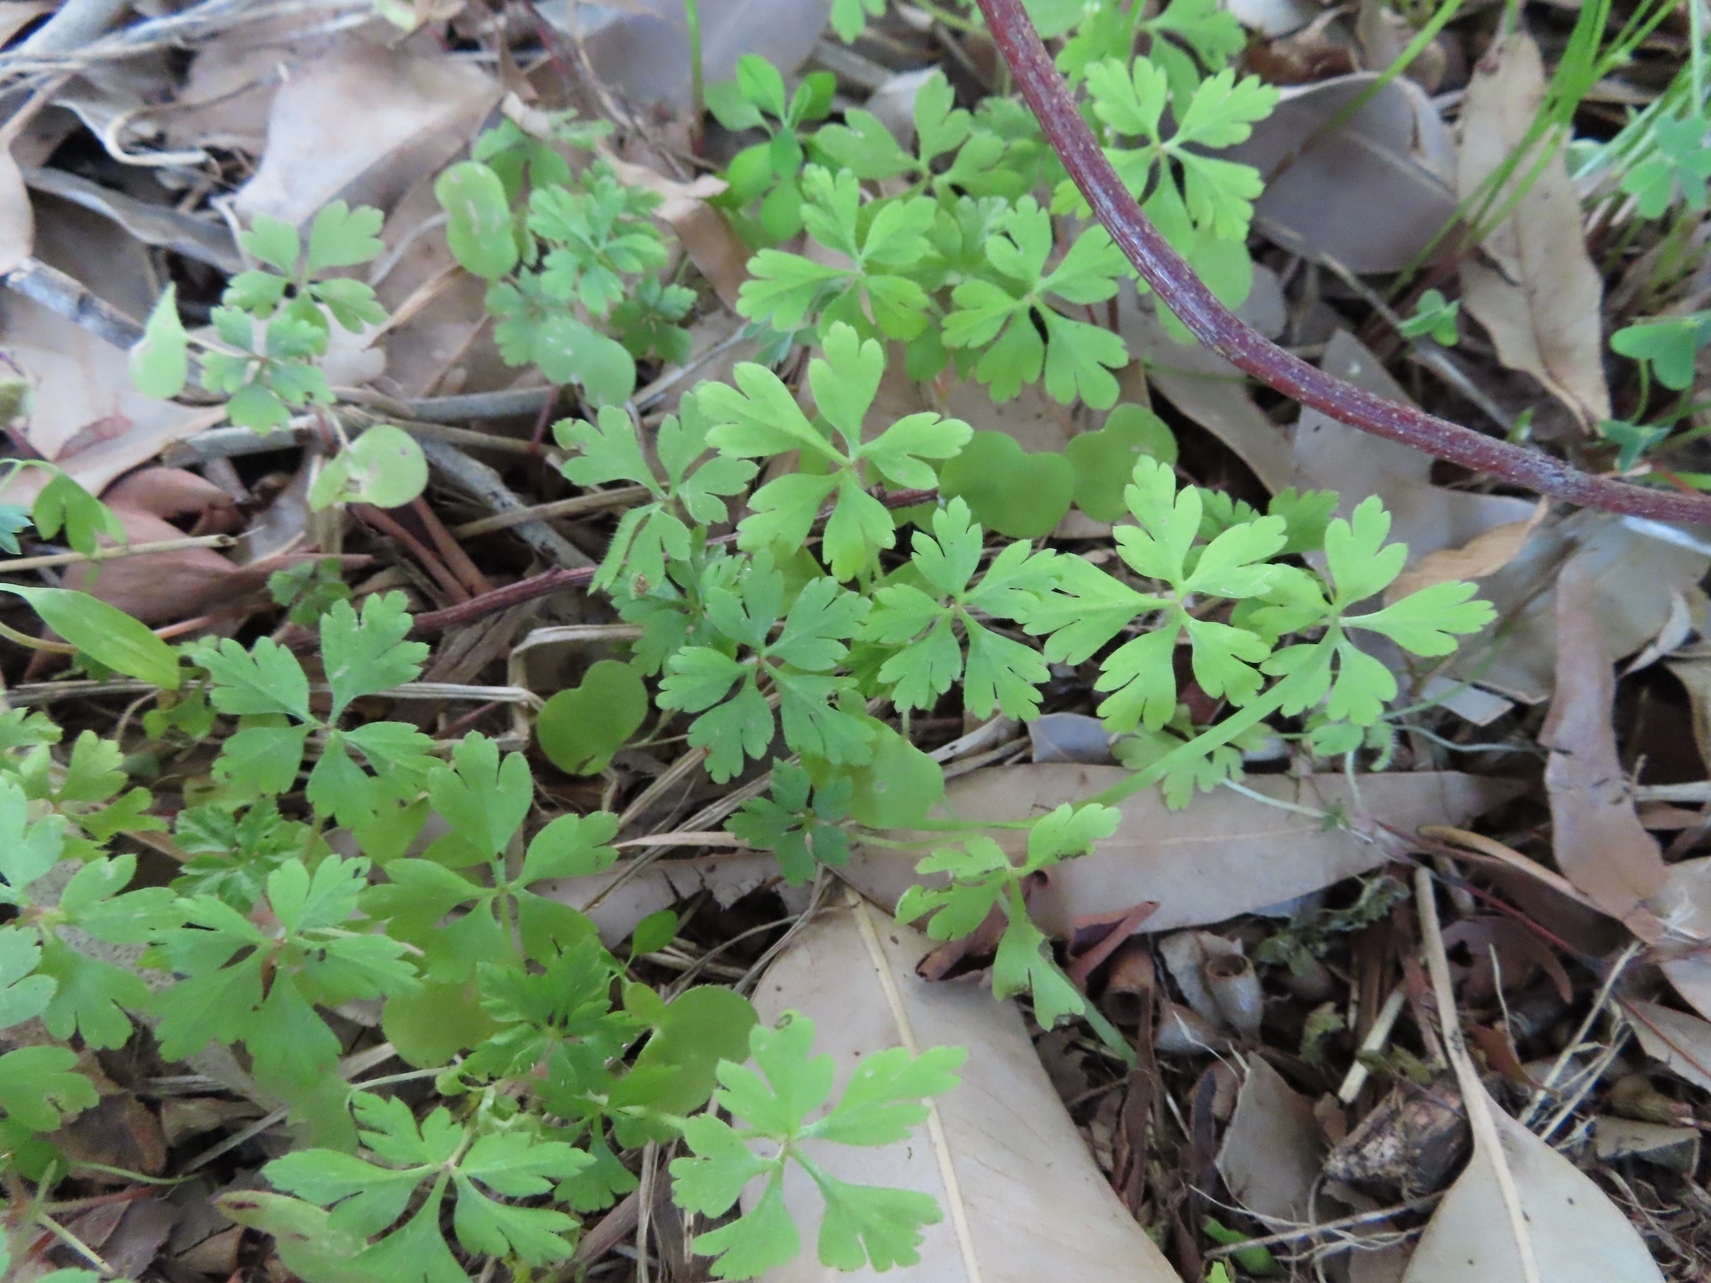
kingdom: Plantae
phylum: Tracheophyta
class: Magnoliopsida
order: Geraniales
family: Geraniaceae
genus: Geranium
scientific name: Geranium purpureum
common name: Little-robin
